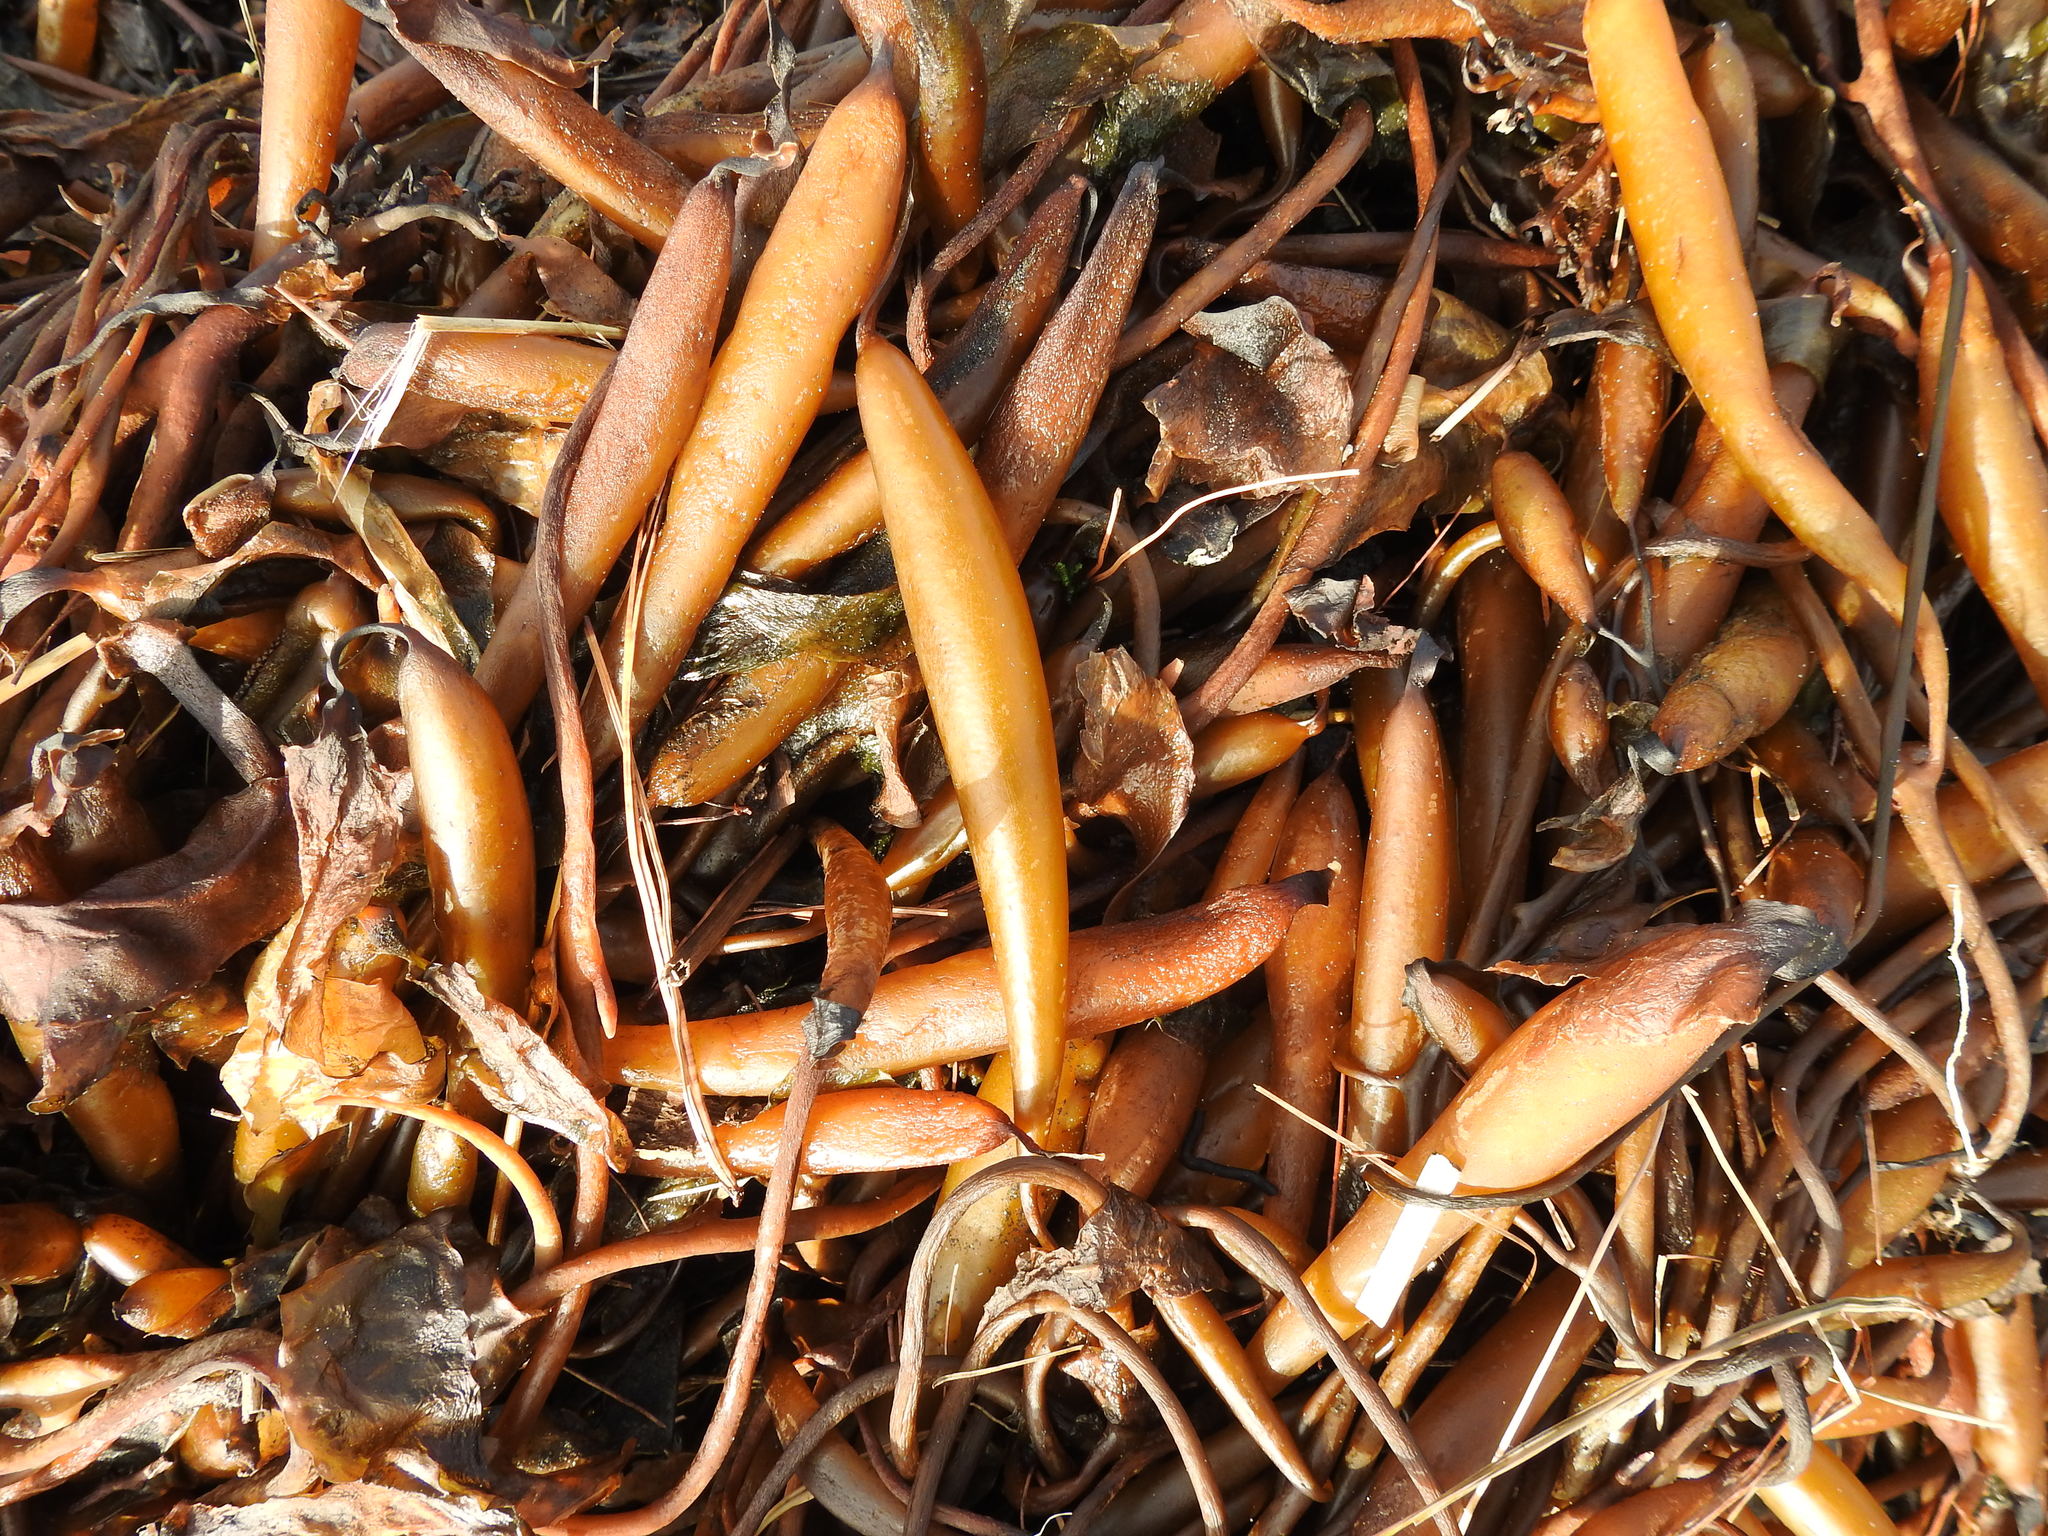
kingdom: Chromista
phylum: Ochrophyta
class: Phaeophyceae
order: Laminariales
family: Laminariaceae
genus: Macrocystis
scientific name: Macrocystis pyrifera
